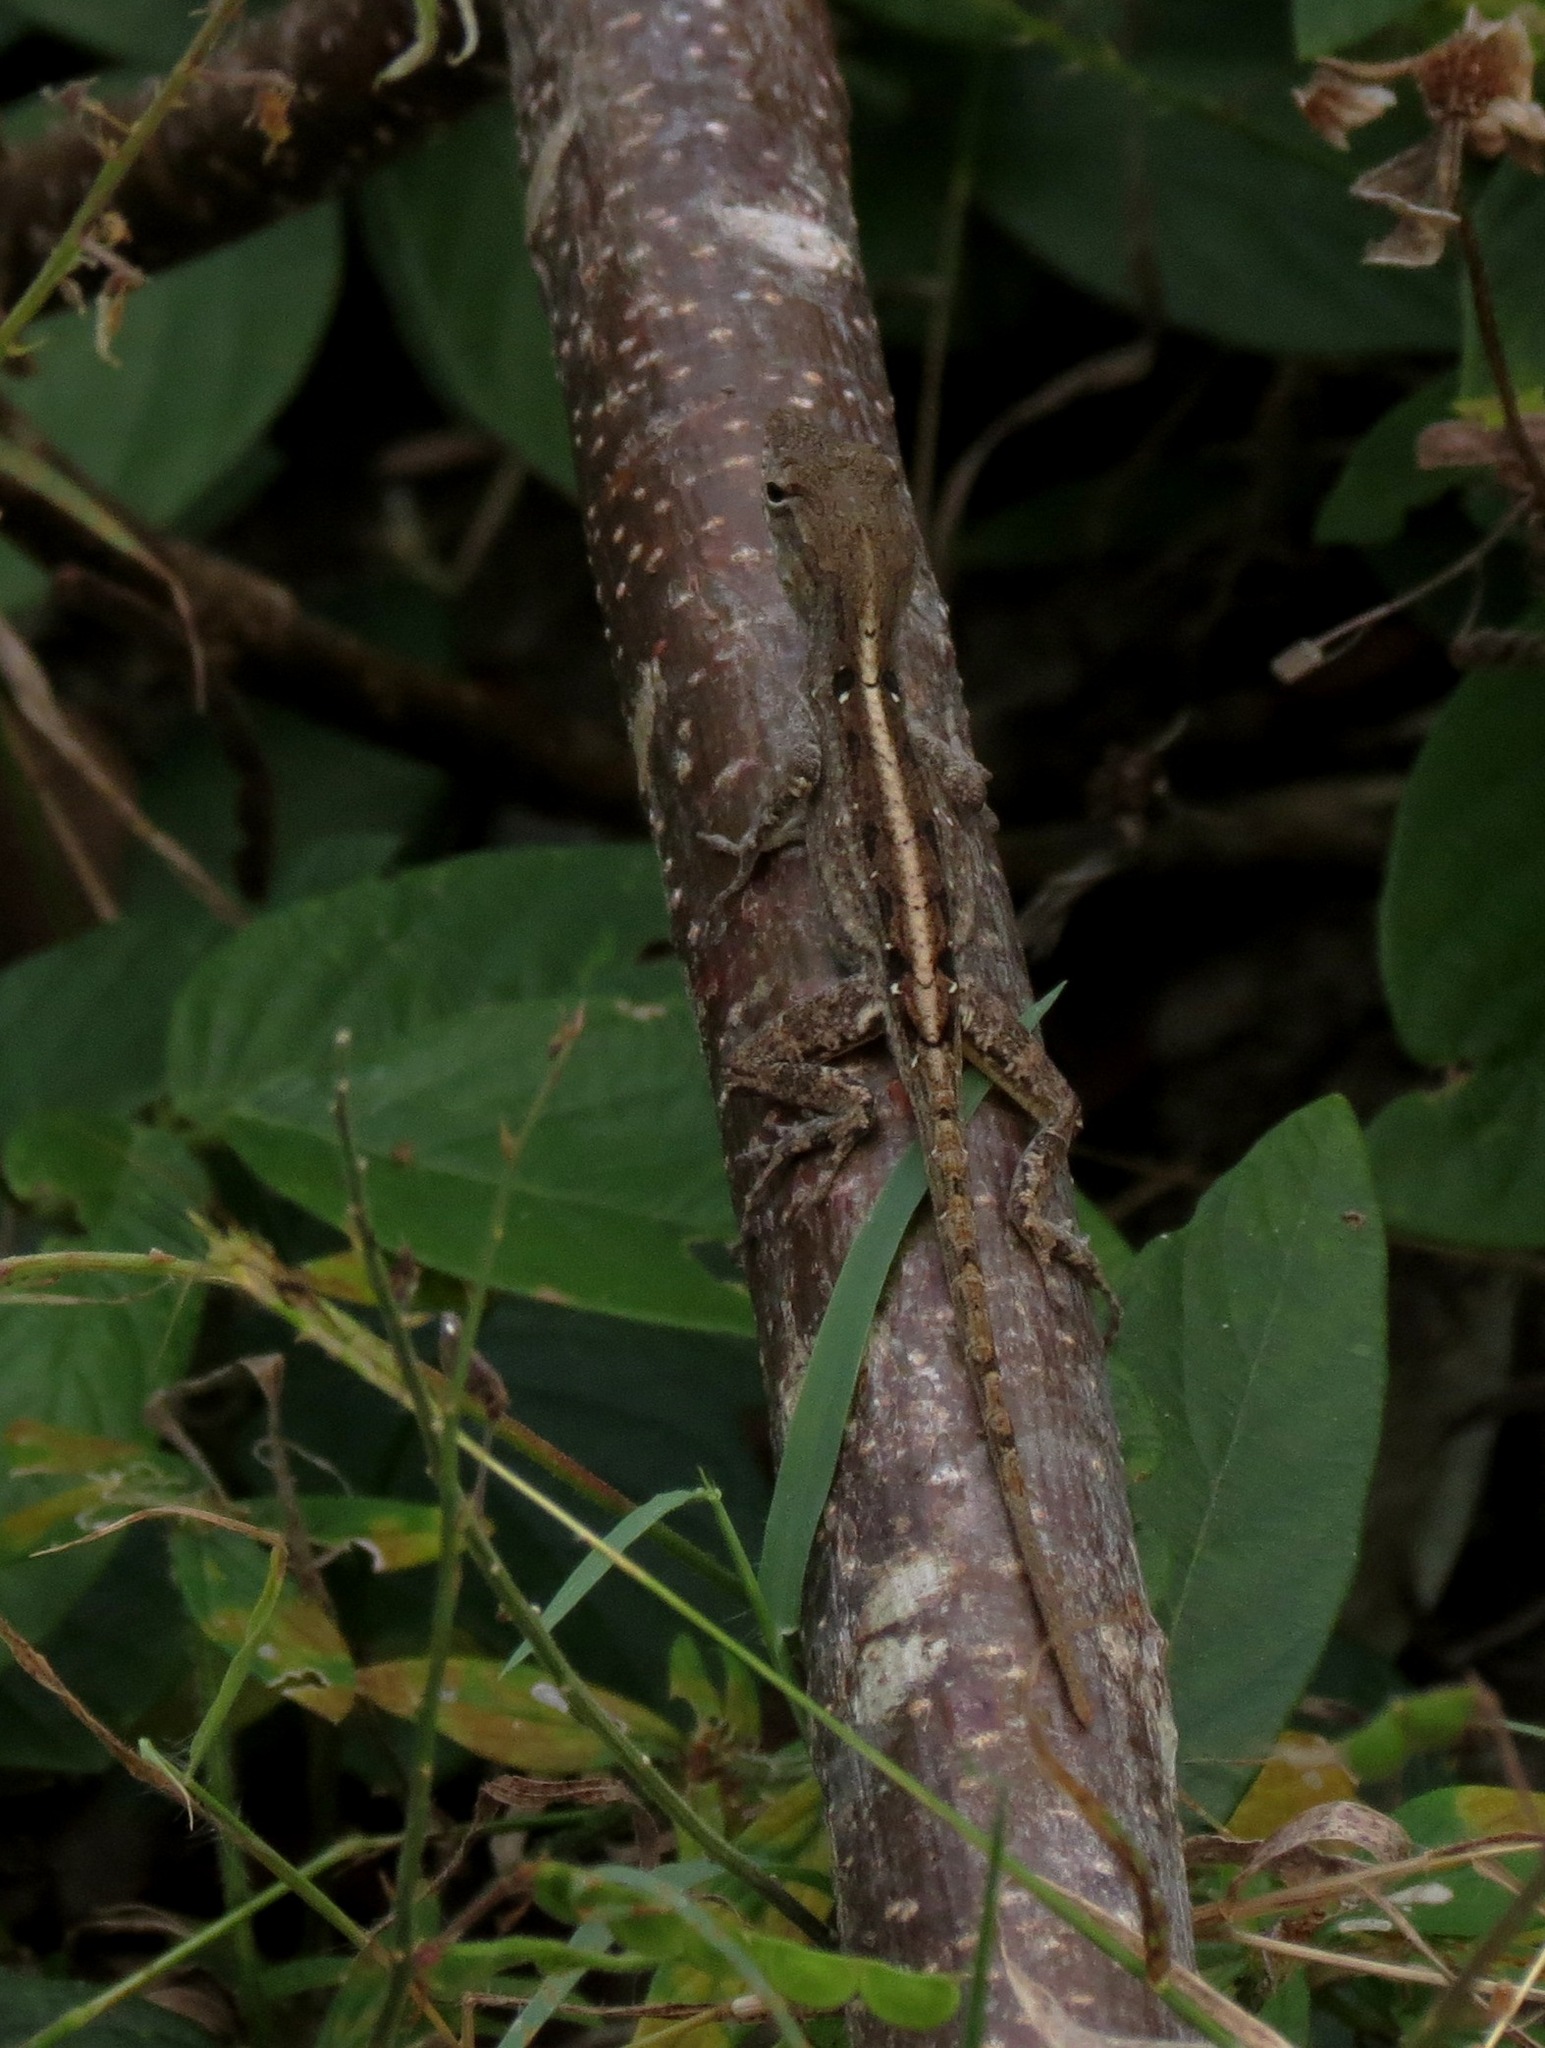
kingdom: Animalia
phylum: Chordata
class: Squamata
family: Dactyloidae
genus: Anolis
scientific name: Anolis sagrei
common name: Brown anole
